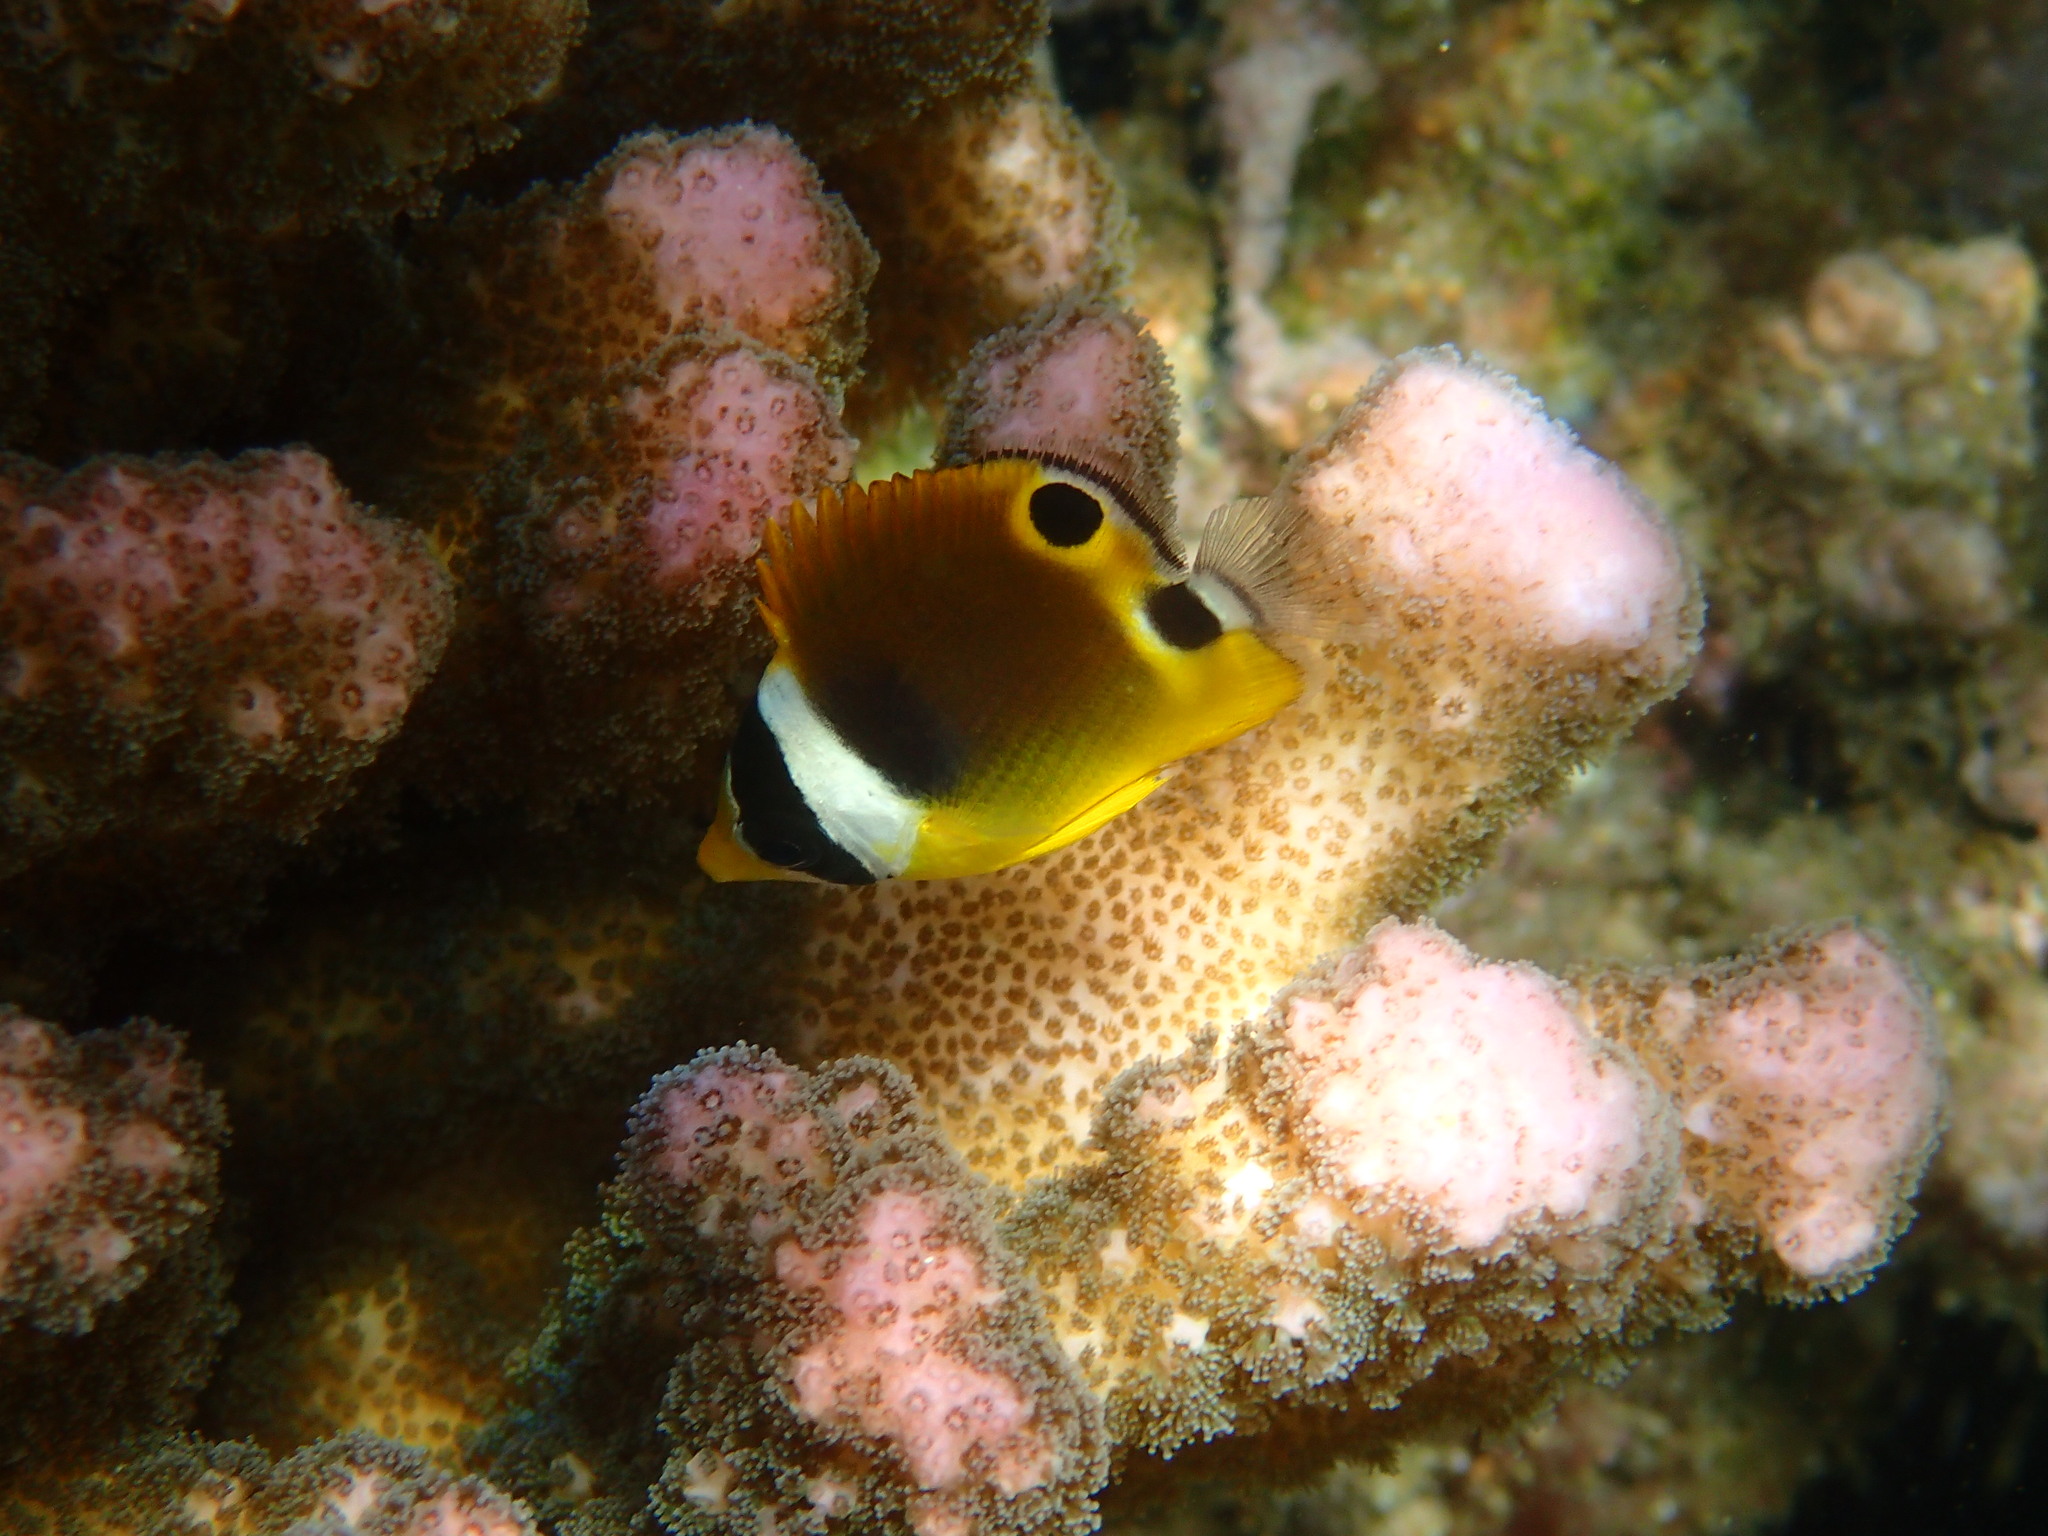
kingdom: Animalia
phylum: Chordata
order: Perciformes
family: Chaetodontidae
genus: Chaetodon
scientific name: Chaetodon lunula
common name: Raccoon butterflyfish
